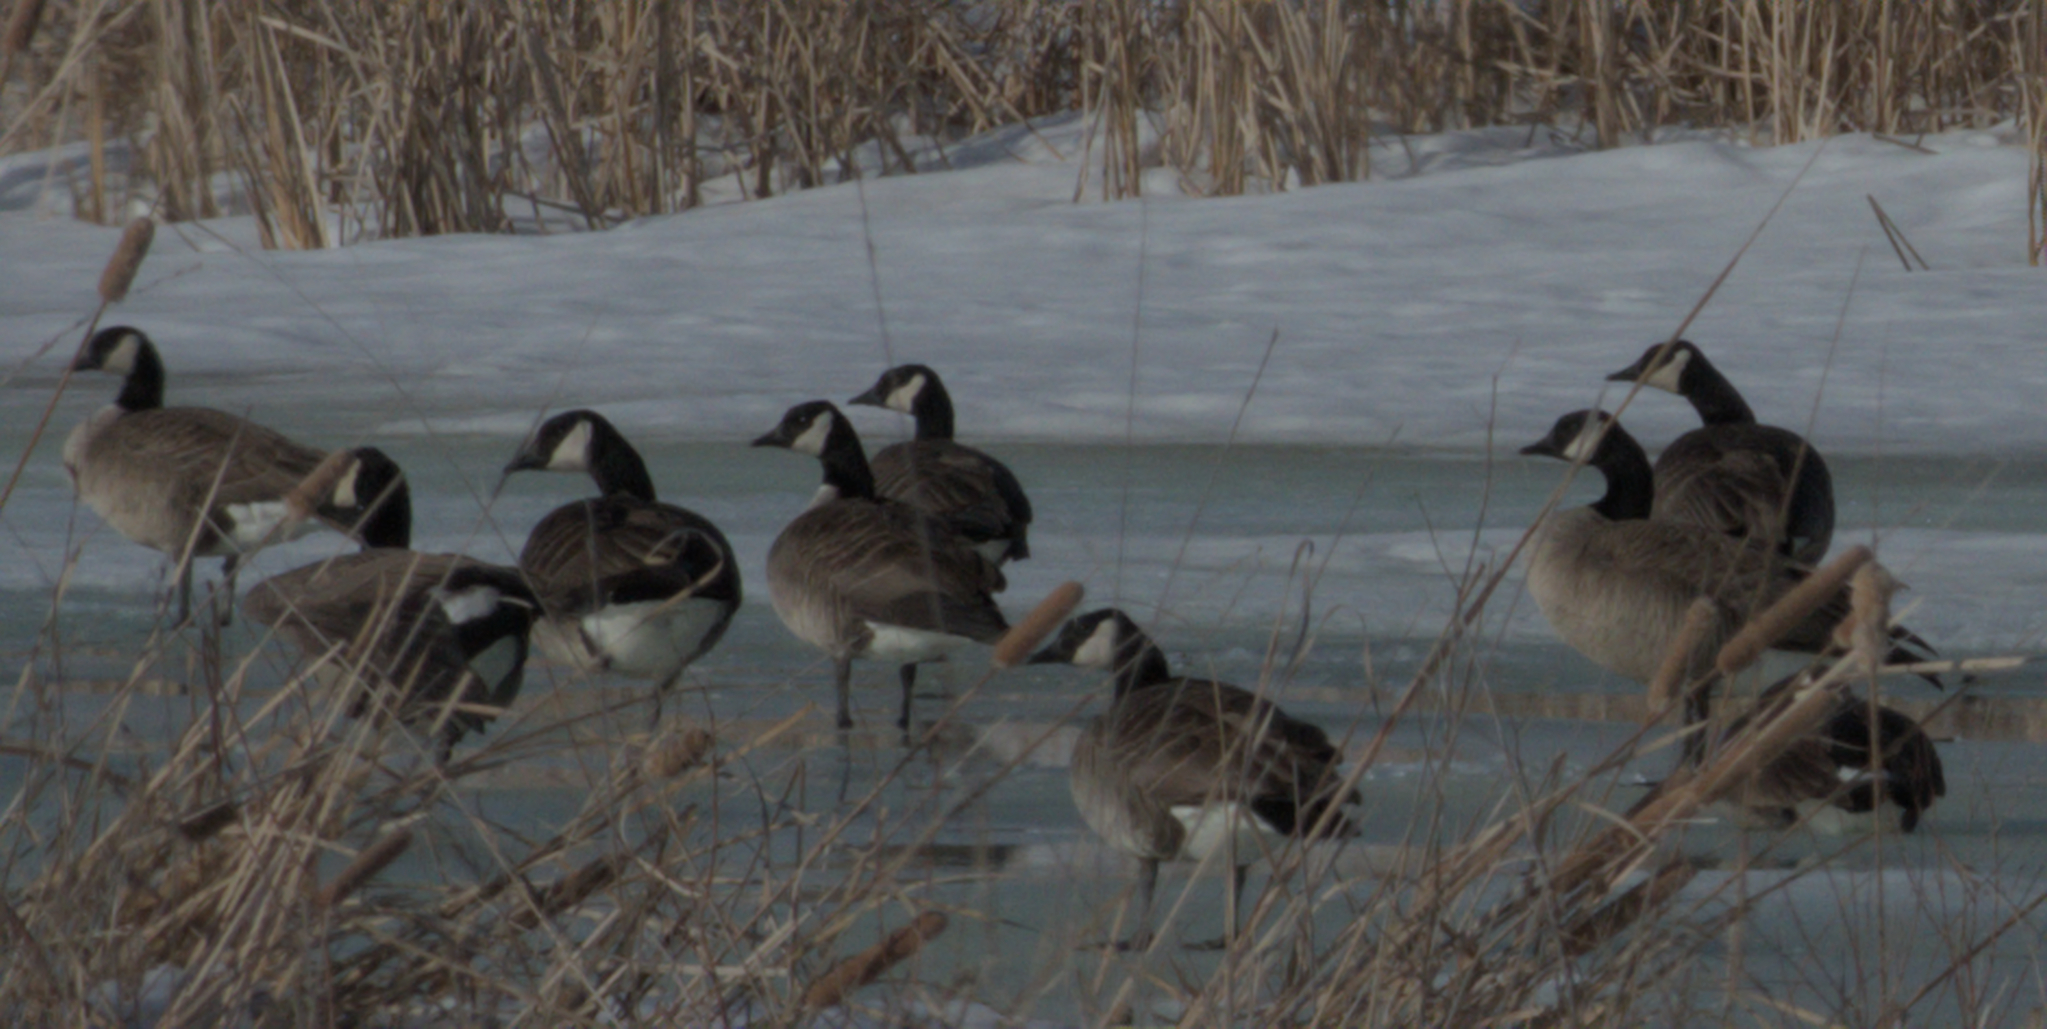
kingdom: Animalia
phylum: Chordata
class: Aves
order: Anseriformes
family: Anatidae
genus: Branta
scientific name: Branta canadensis
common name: Canada goose
